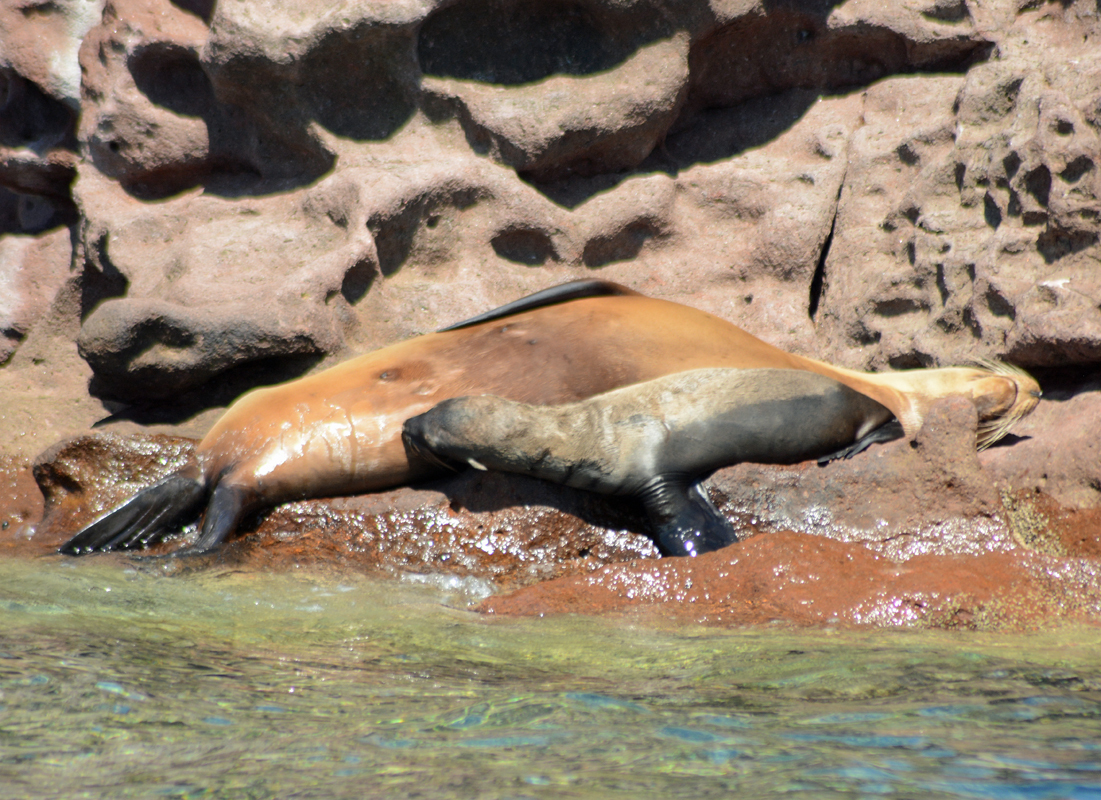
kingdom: Animalia
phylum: Chordata
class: Mammalia
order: Carnivora
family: Otariidae
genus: Zalophus
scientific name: Zalophus californianus
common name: California sea lion
